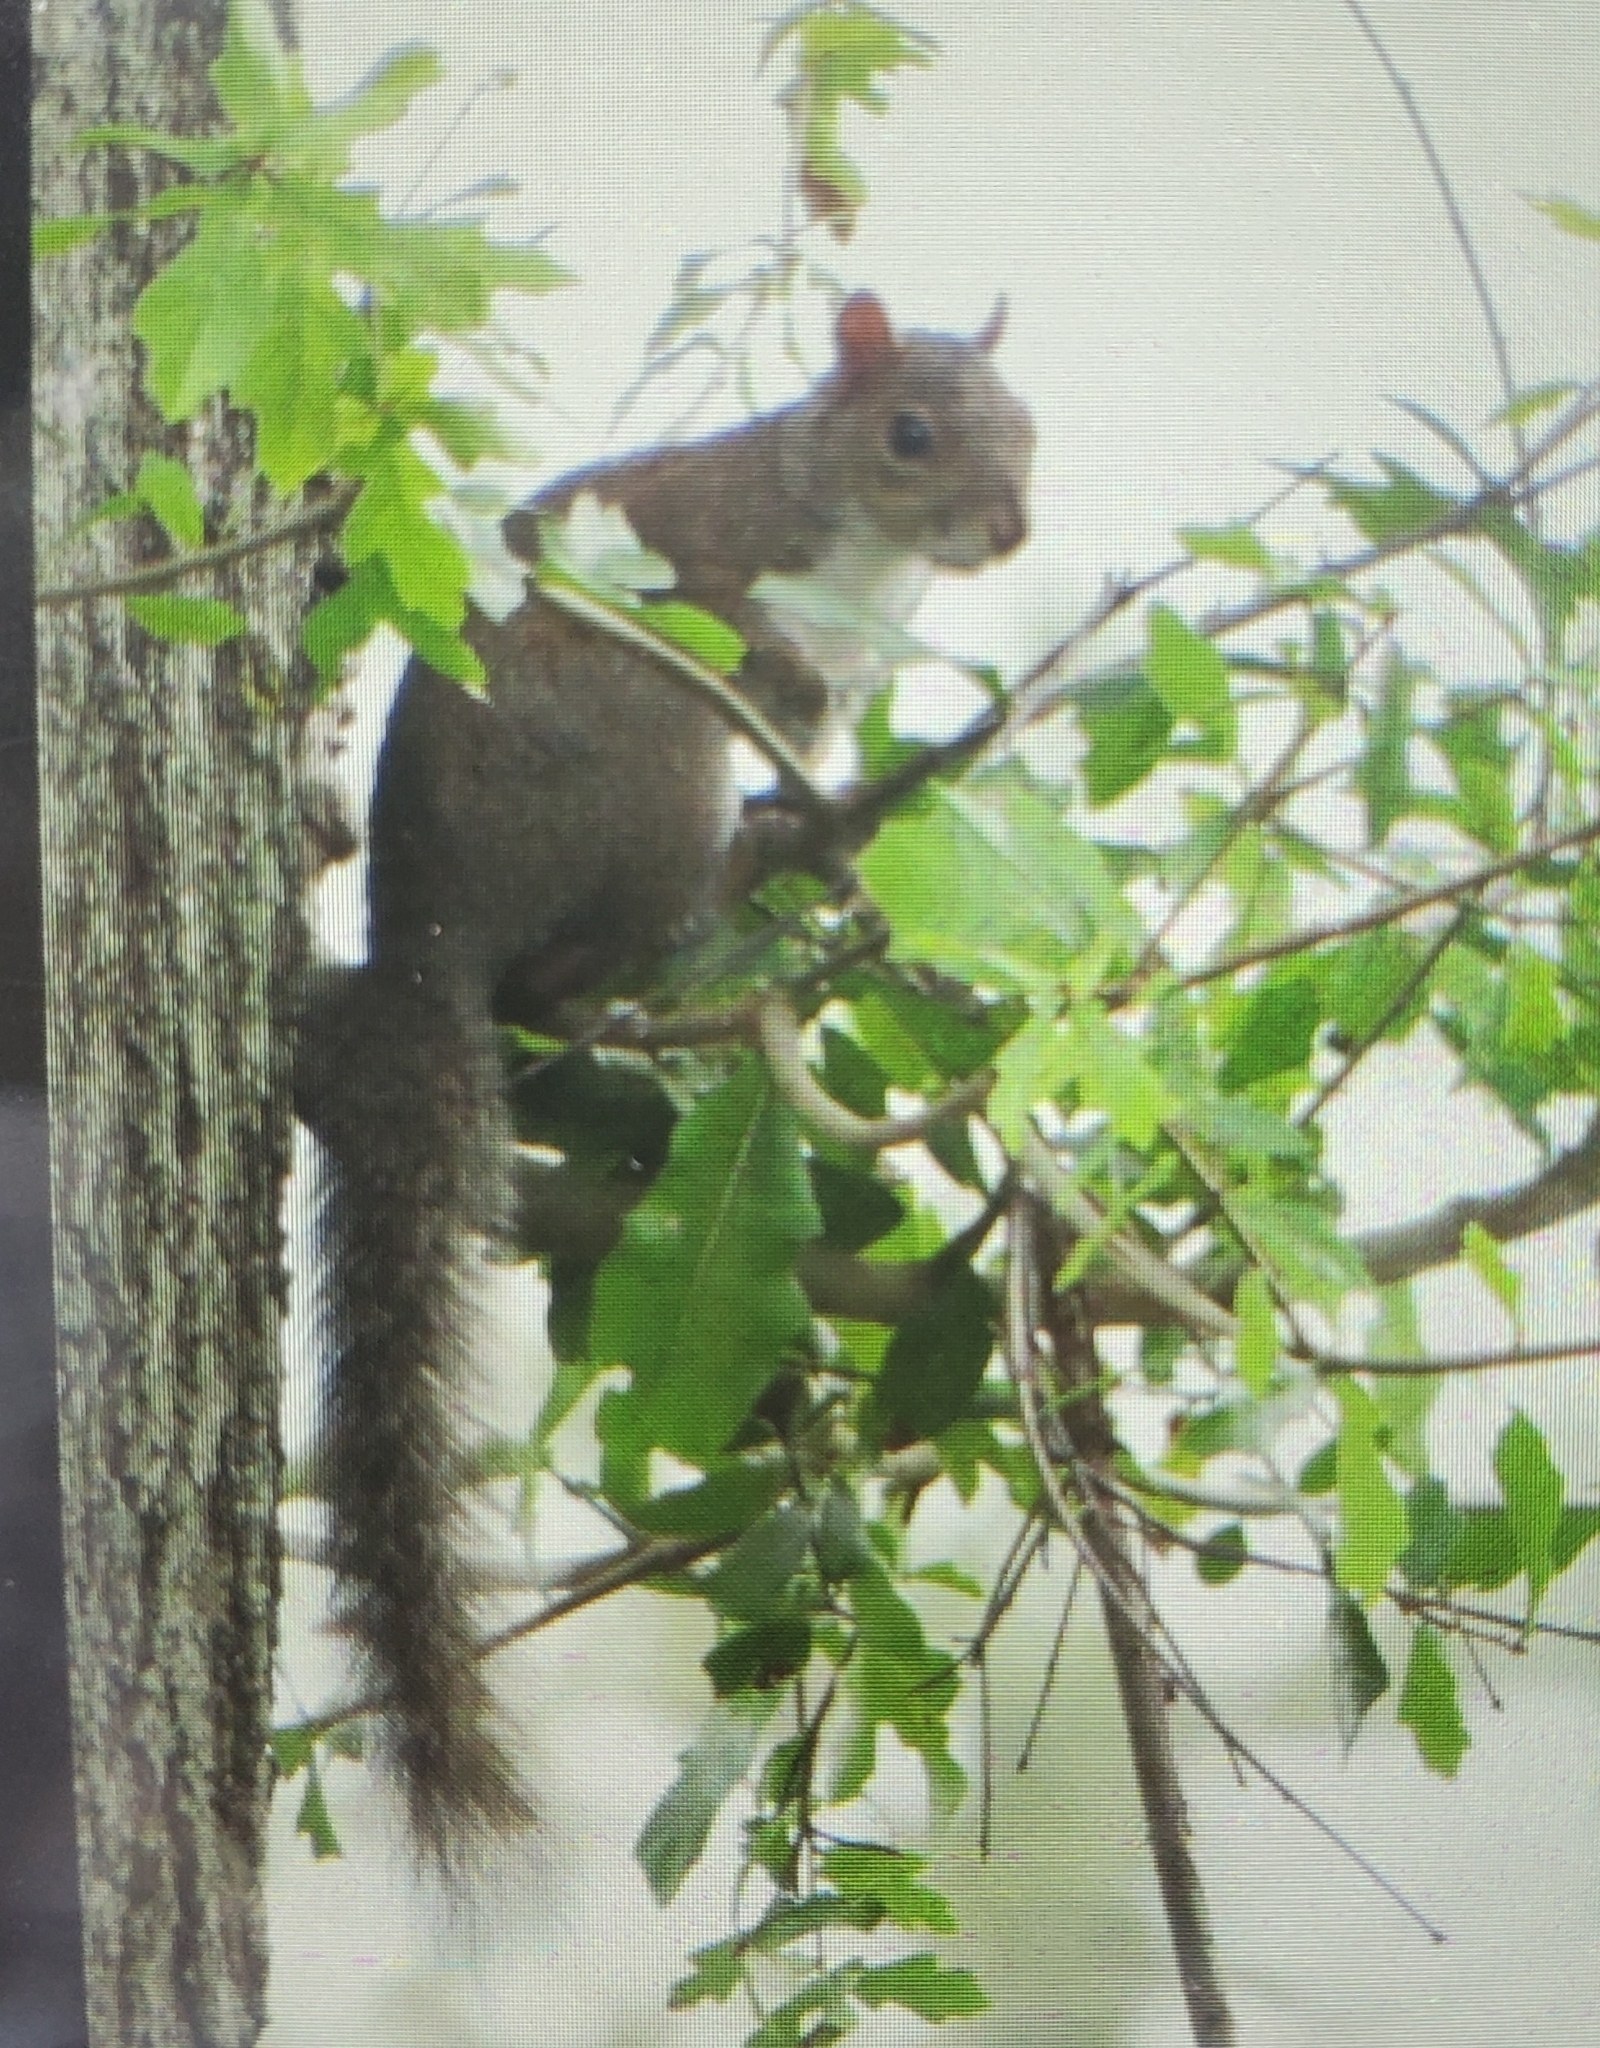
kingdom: Animalia
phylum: Chordata
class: Mammalia
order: Rodentia
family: Sciuridae
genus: Sciurus
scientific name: Sciurus carolinensis
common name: Eastern gray squirrel
